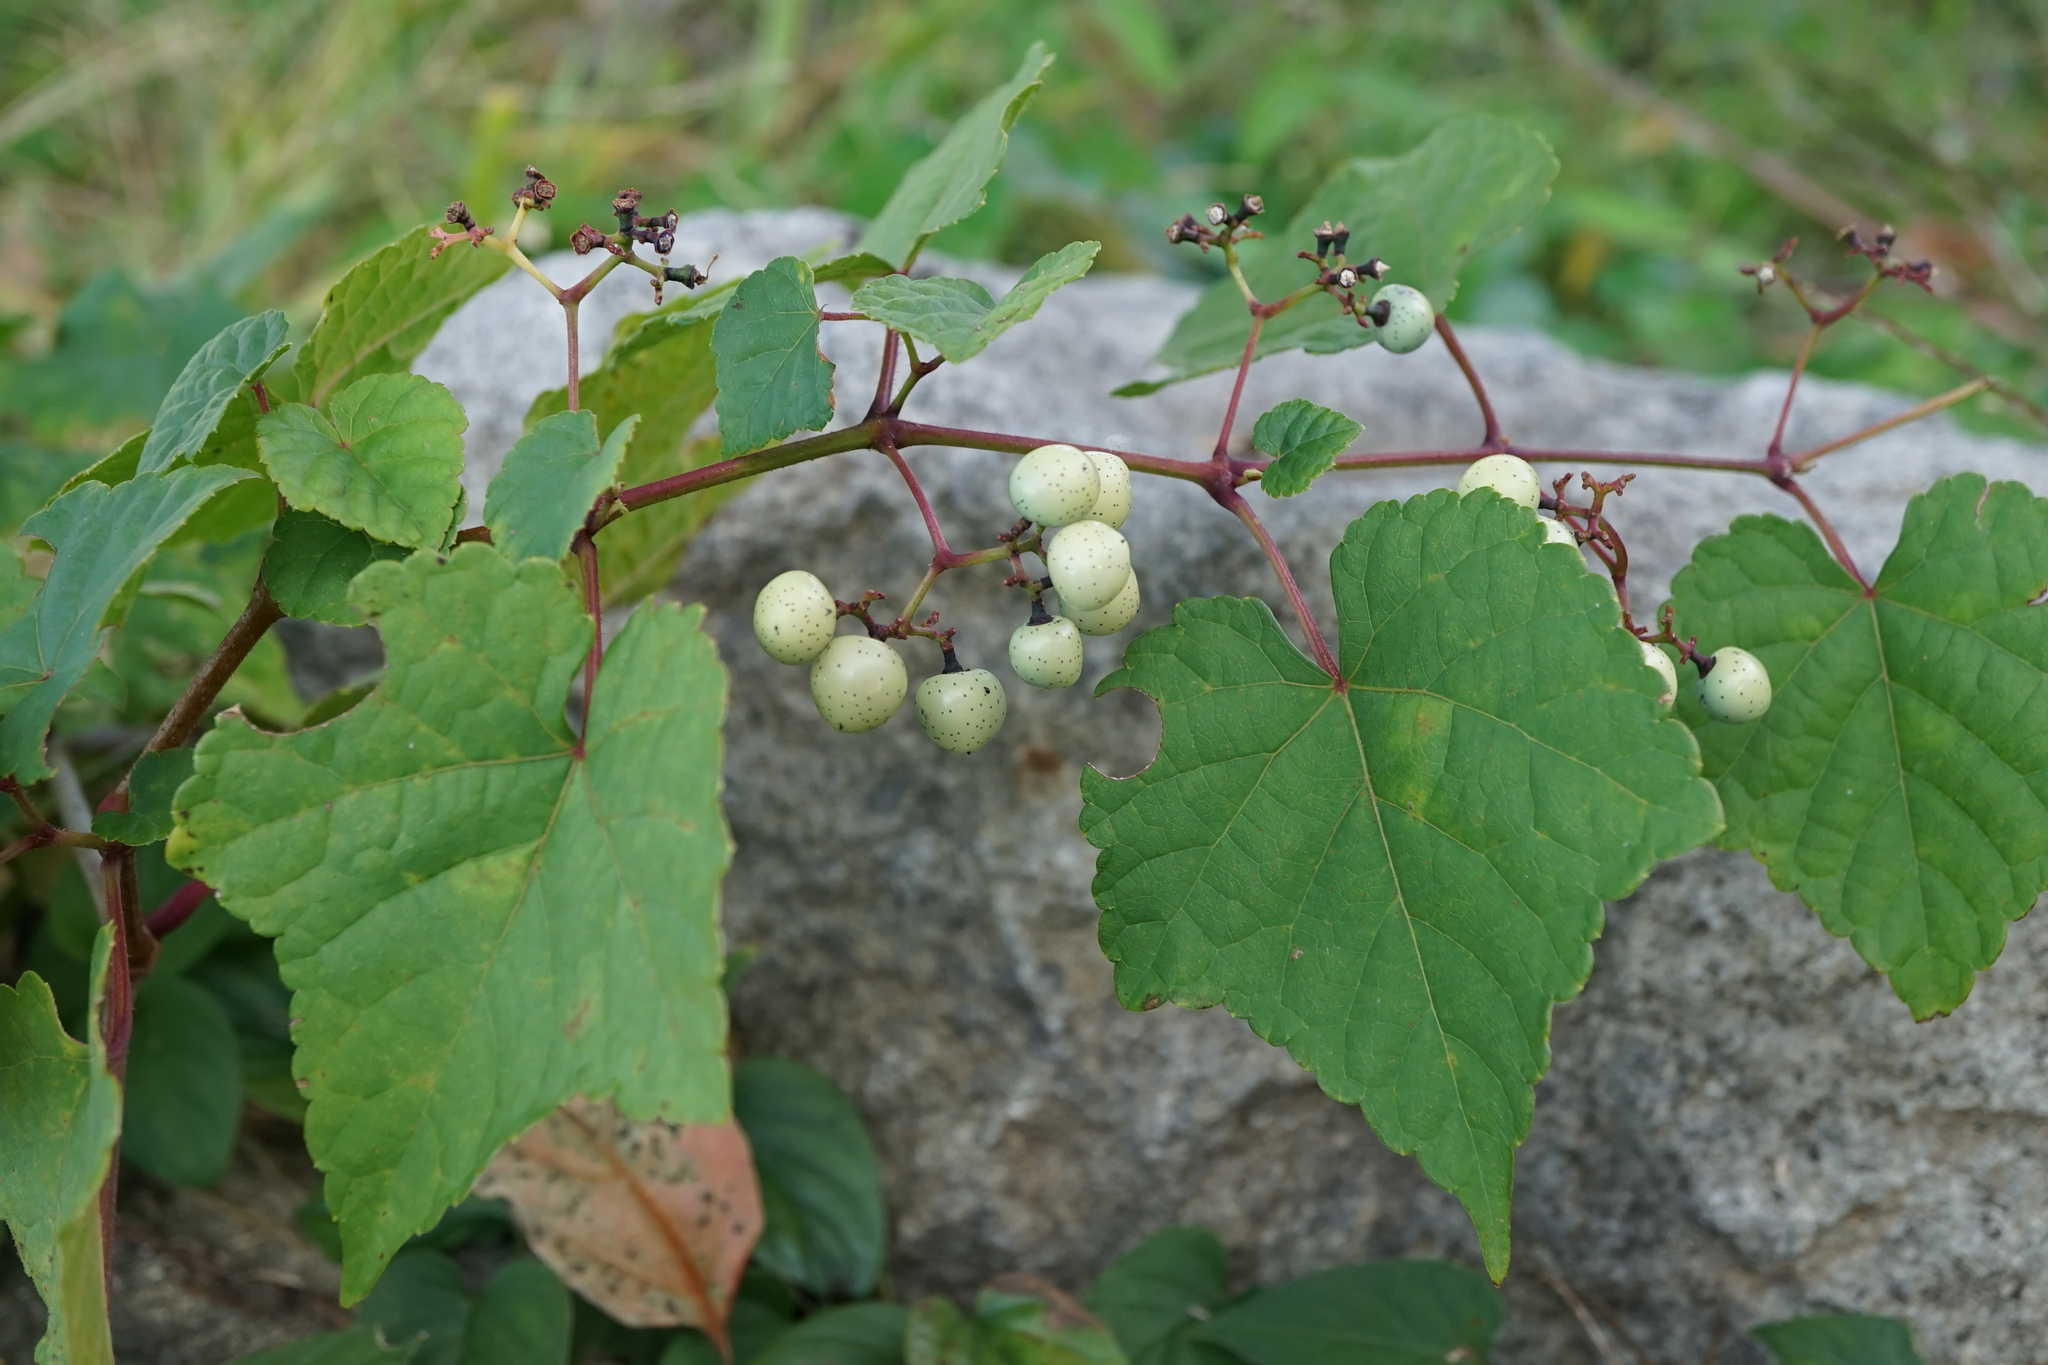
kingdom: Plantae
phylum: Tracheophyta
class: Magnoliopsida
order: Vitales
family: Vitaceae
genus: Ampelopsis
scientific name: Ampelopsis glandulosa
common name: Amur peppervine
